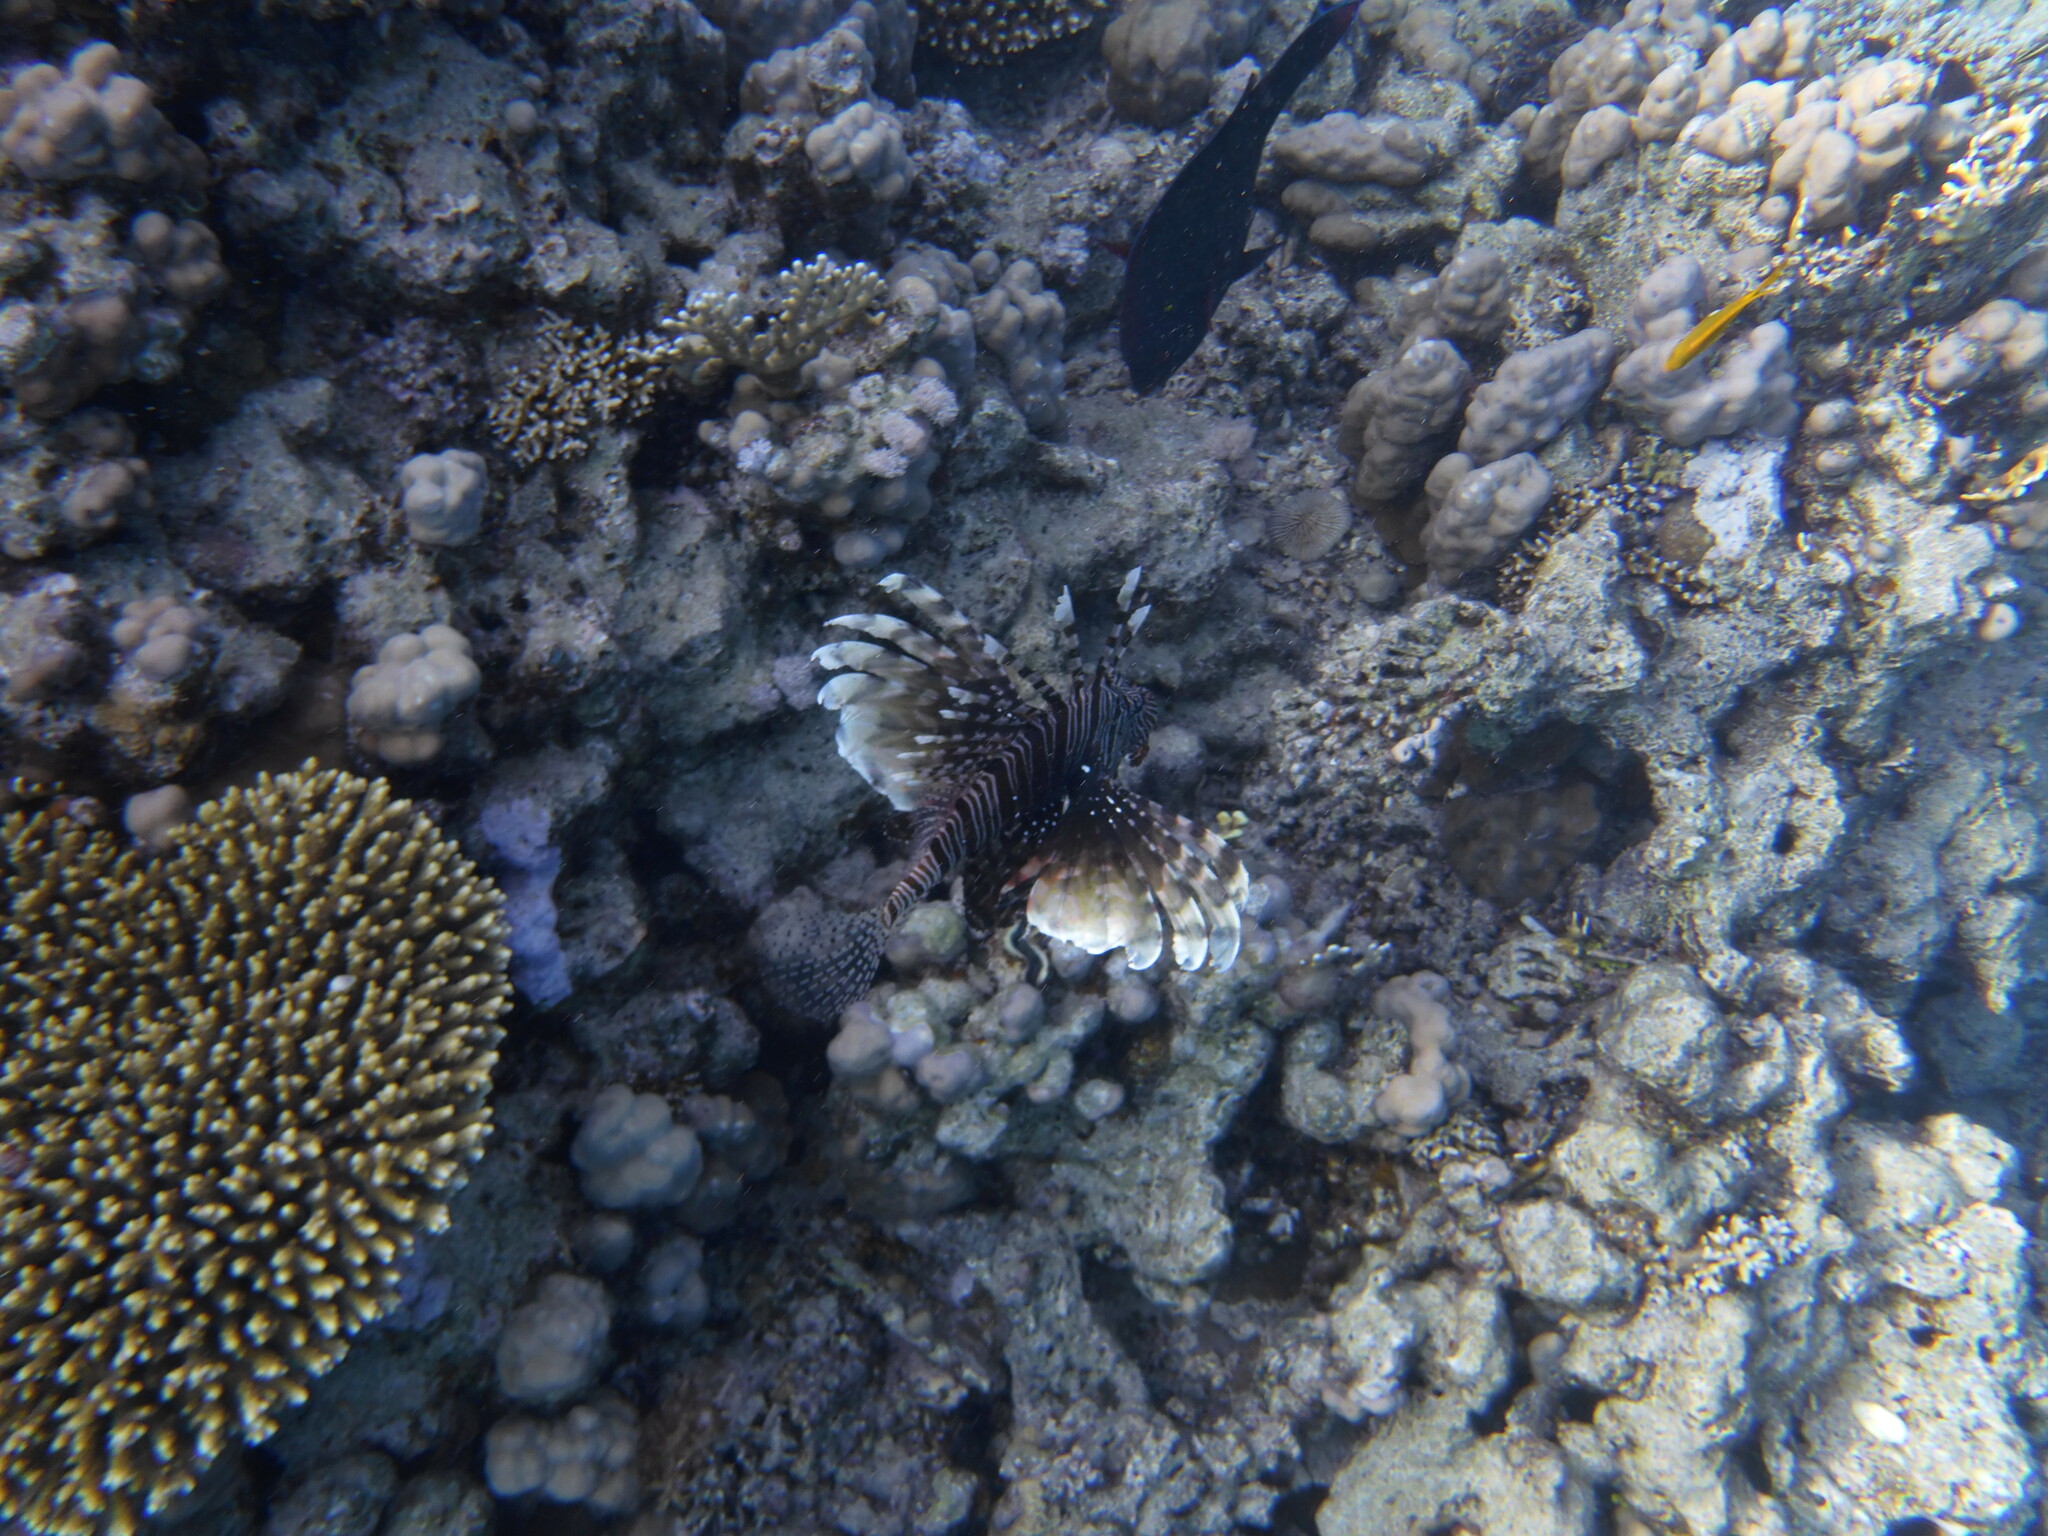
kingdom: Animalia
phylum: Chordata
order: Scorpaeniformes
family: Scorpaenidae
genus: Pterois
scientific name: Pterois miles
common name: Devil firefish
